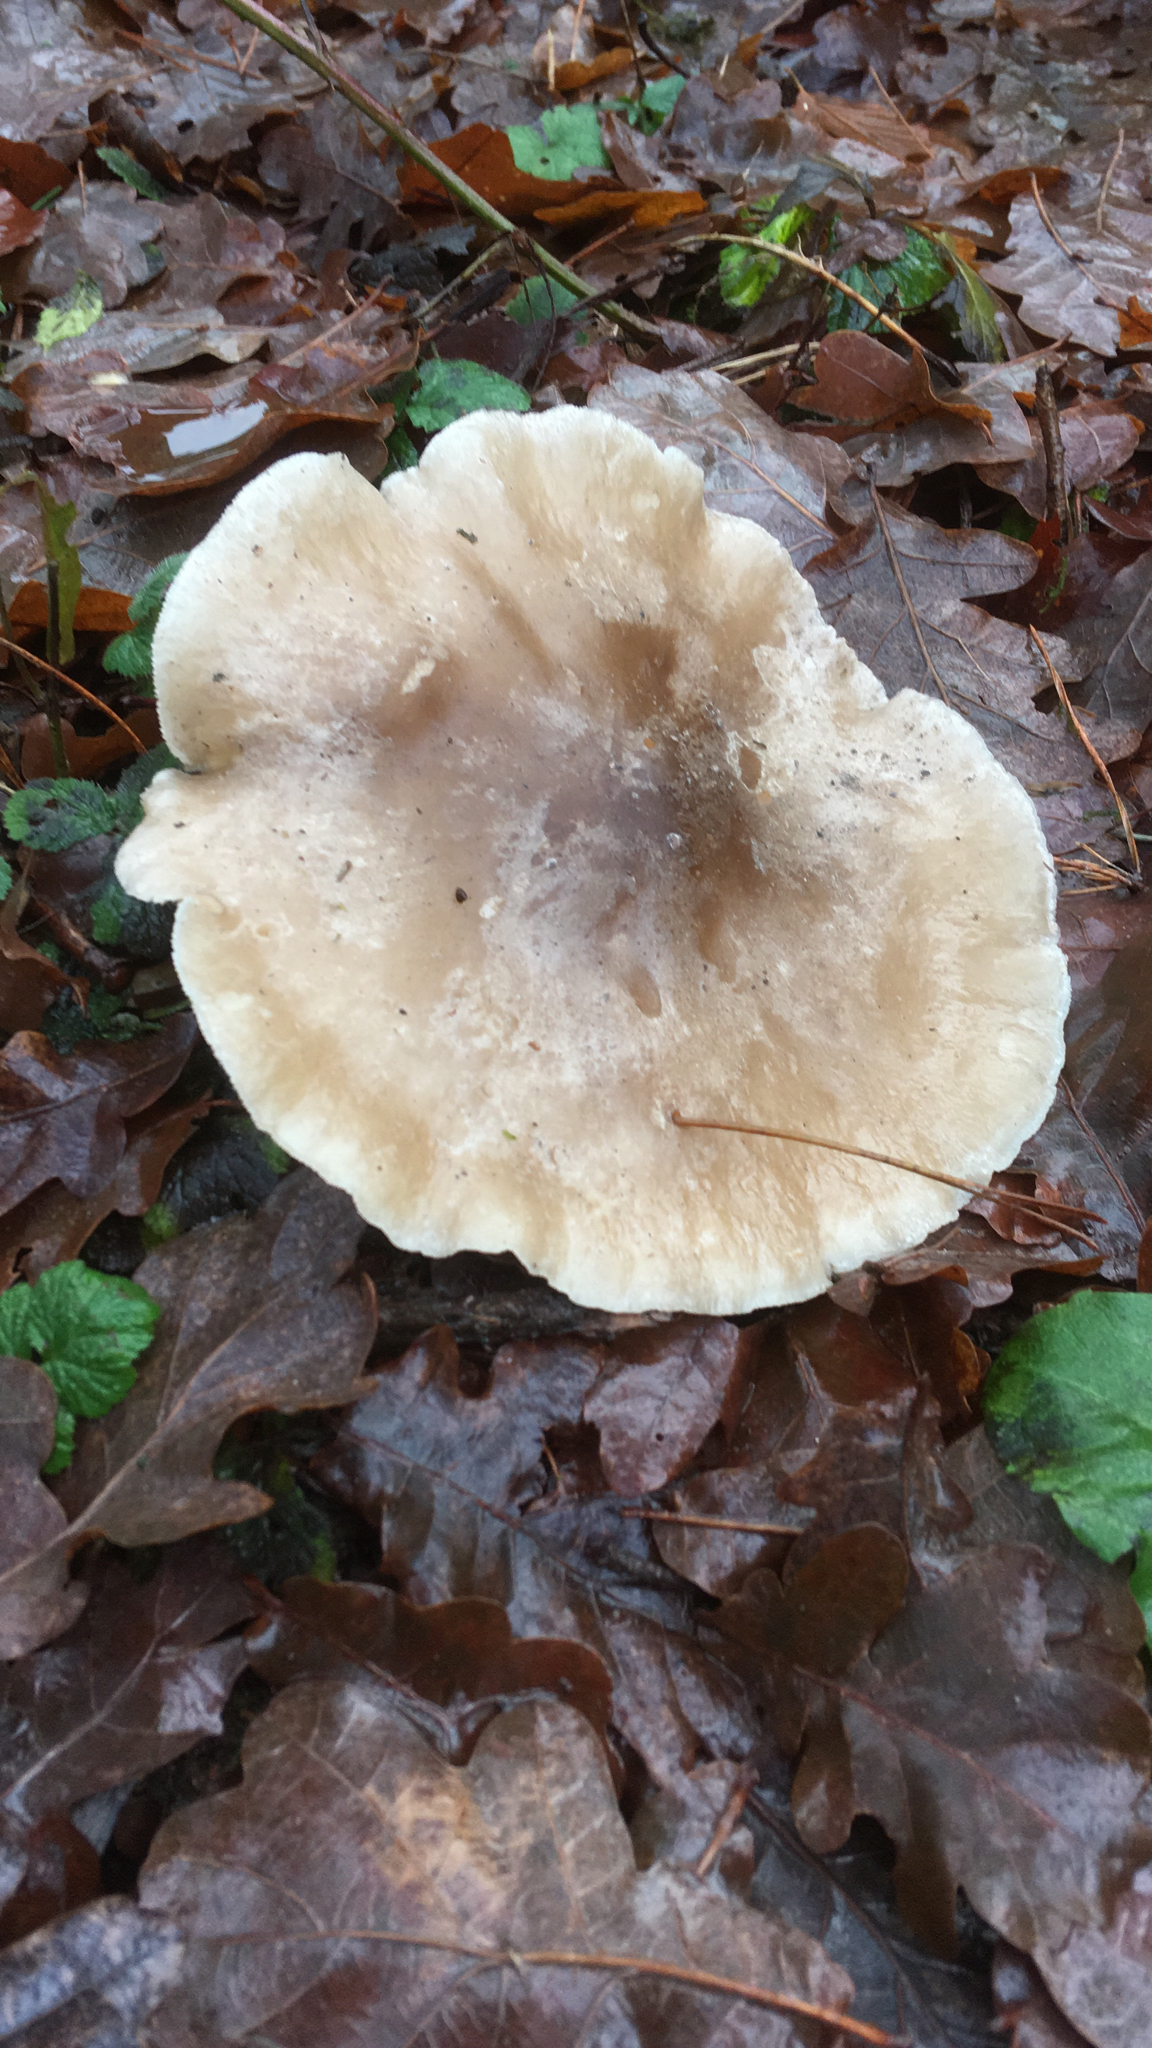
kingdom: Fungi
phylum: Basidiomycota
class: Agaricomycetes
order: Agaricales
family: Tricholomataceae
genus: Clitocybe
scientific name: Clitocybe nebularis
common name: Clouded agaric
